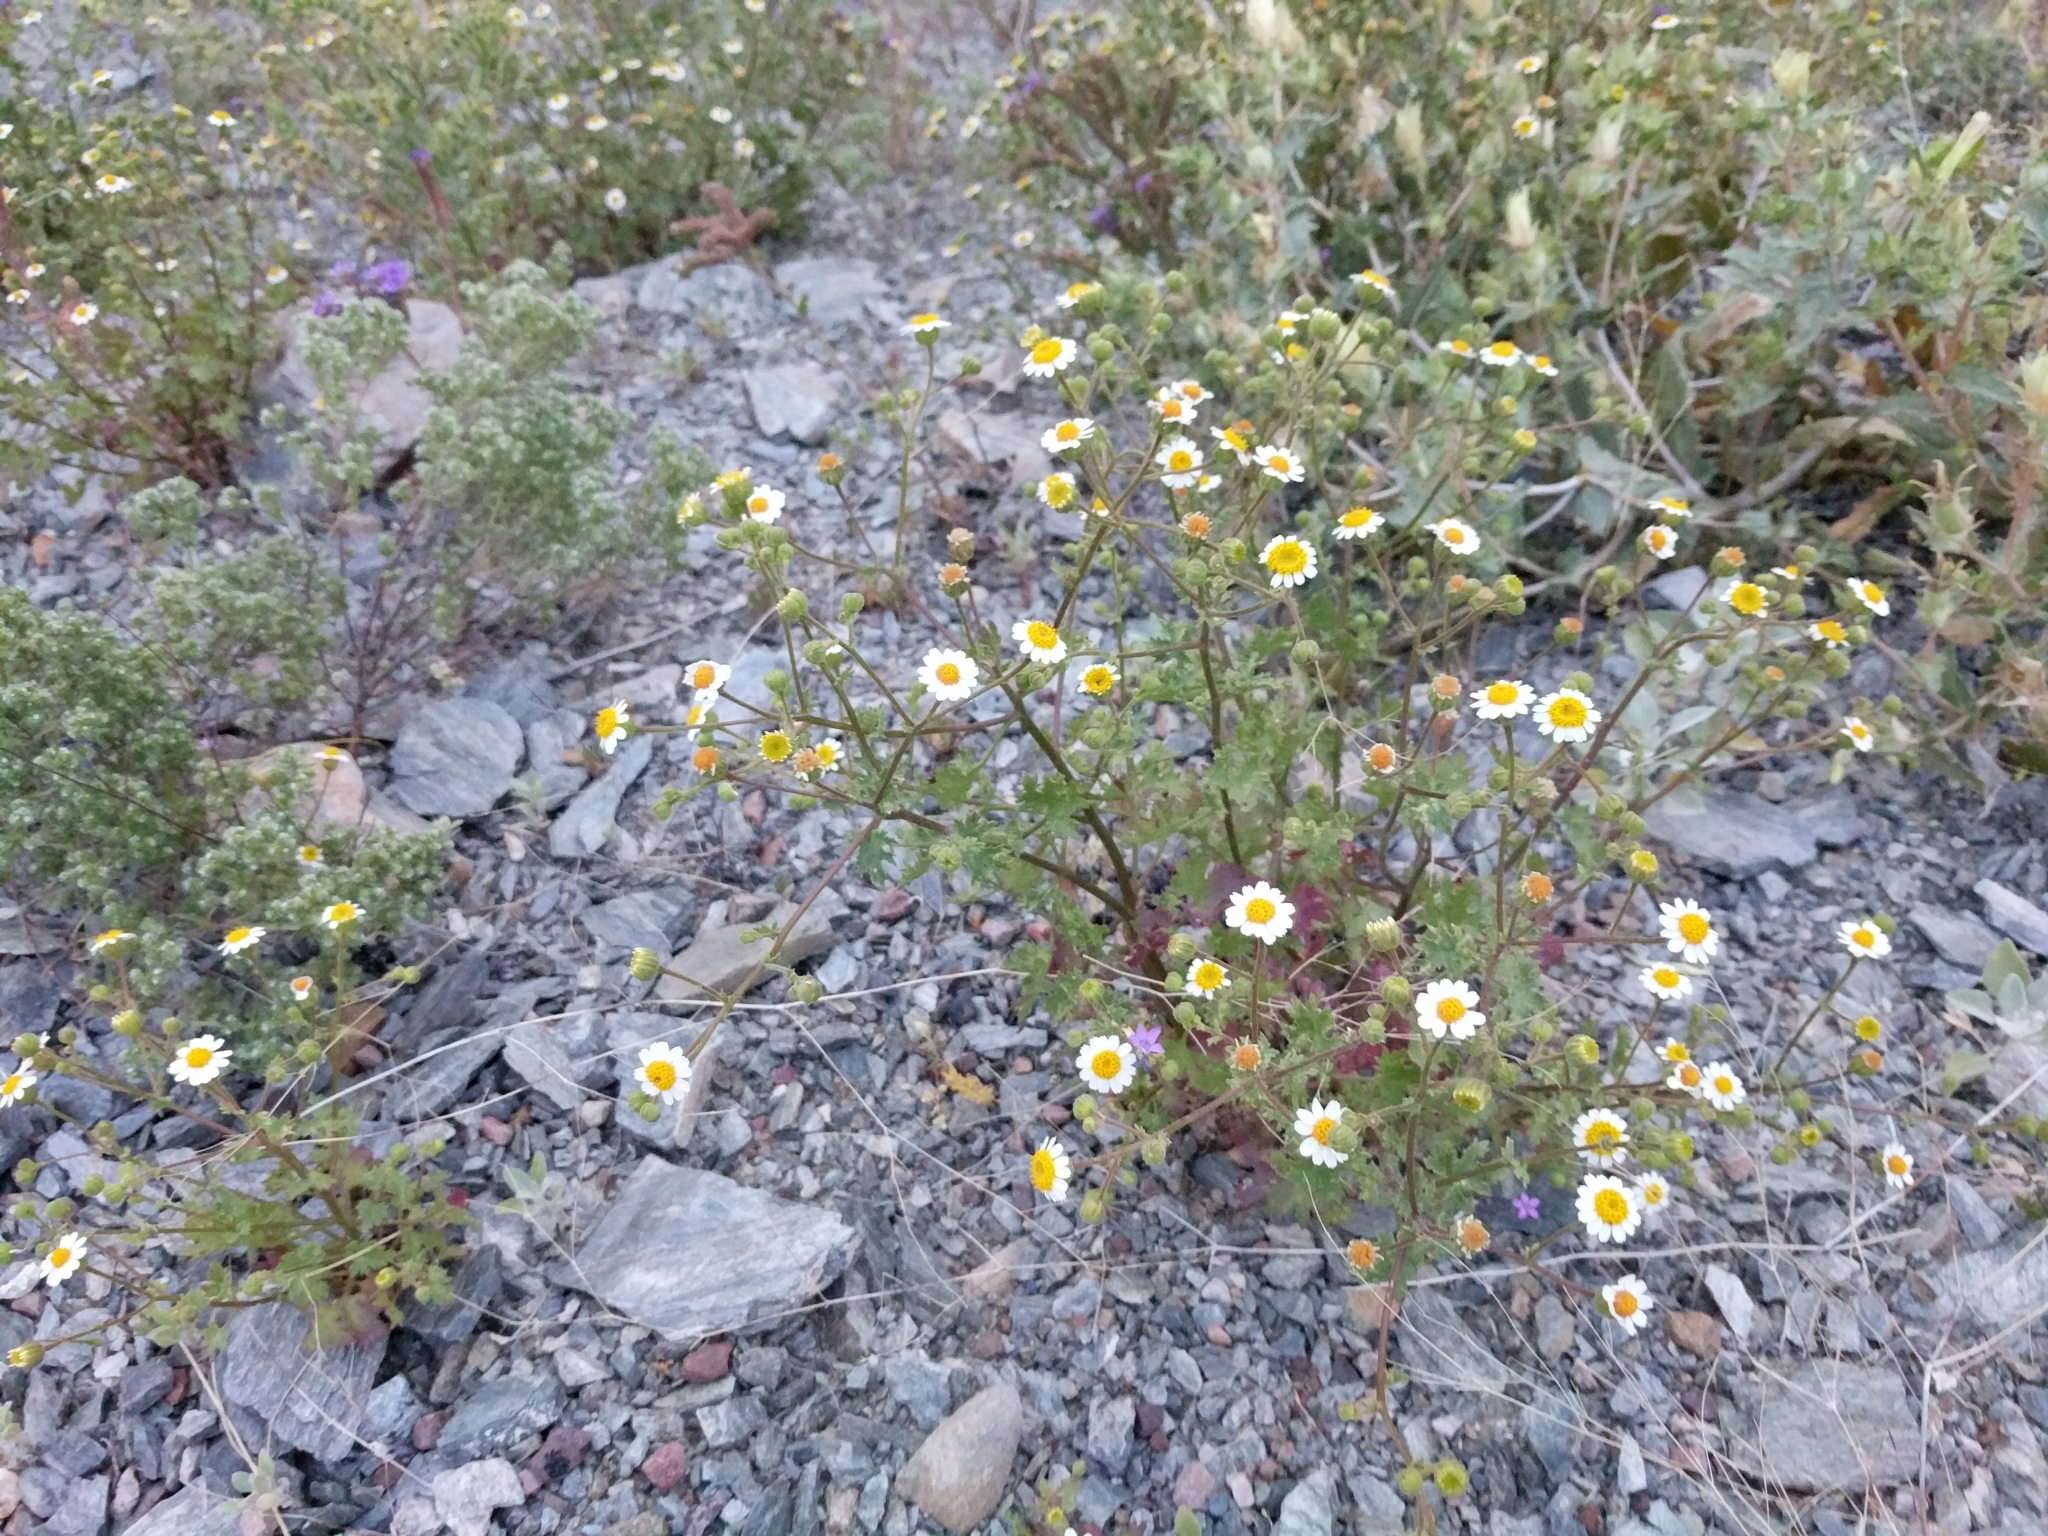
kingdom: Plantae
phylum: Tracheophyta
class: Magnoliopsida
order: Asterales
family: Asteraceae
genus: Laphamia
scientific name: Laphamia emoryi
